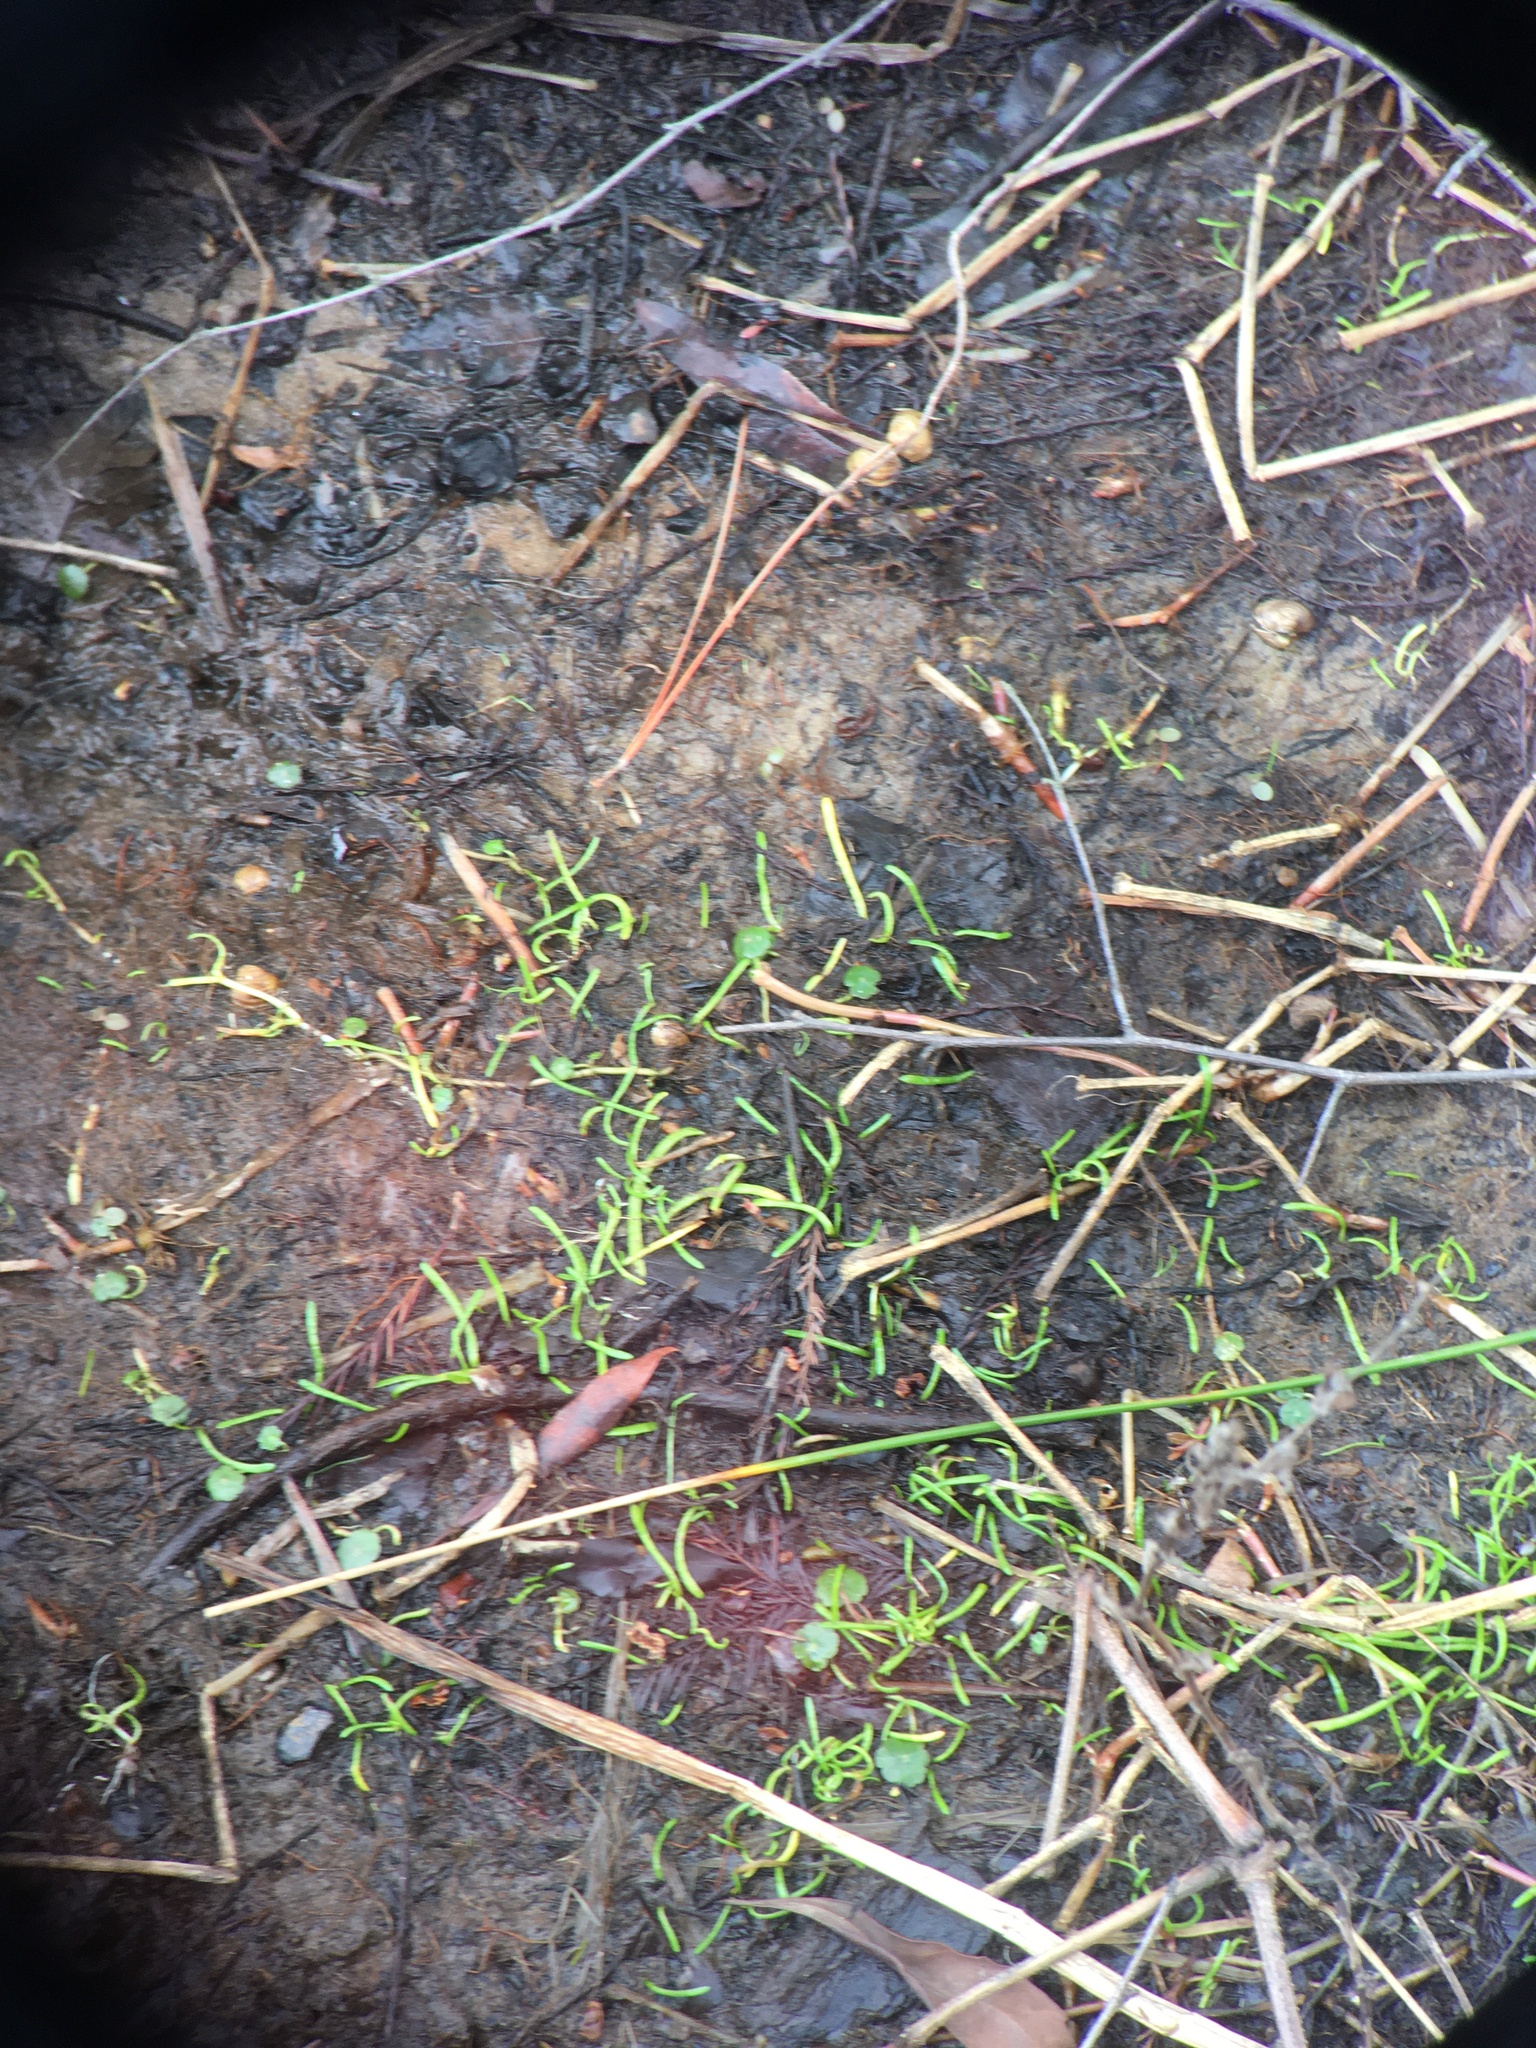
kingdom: Plantae
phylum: Tracheophyta
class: Magnoliopsida
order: Apiales
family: Apiaceae
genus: Lilaeopsis
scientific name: Lilaeopsis chinensis
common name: Eastern grasswort
